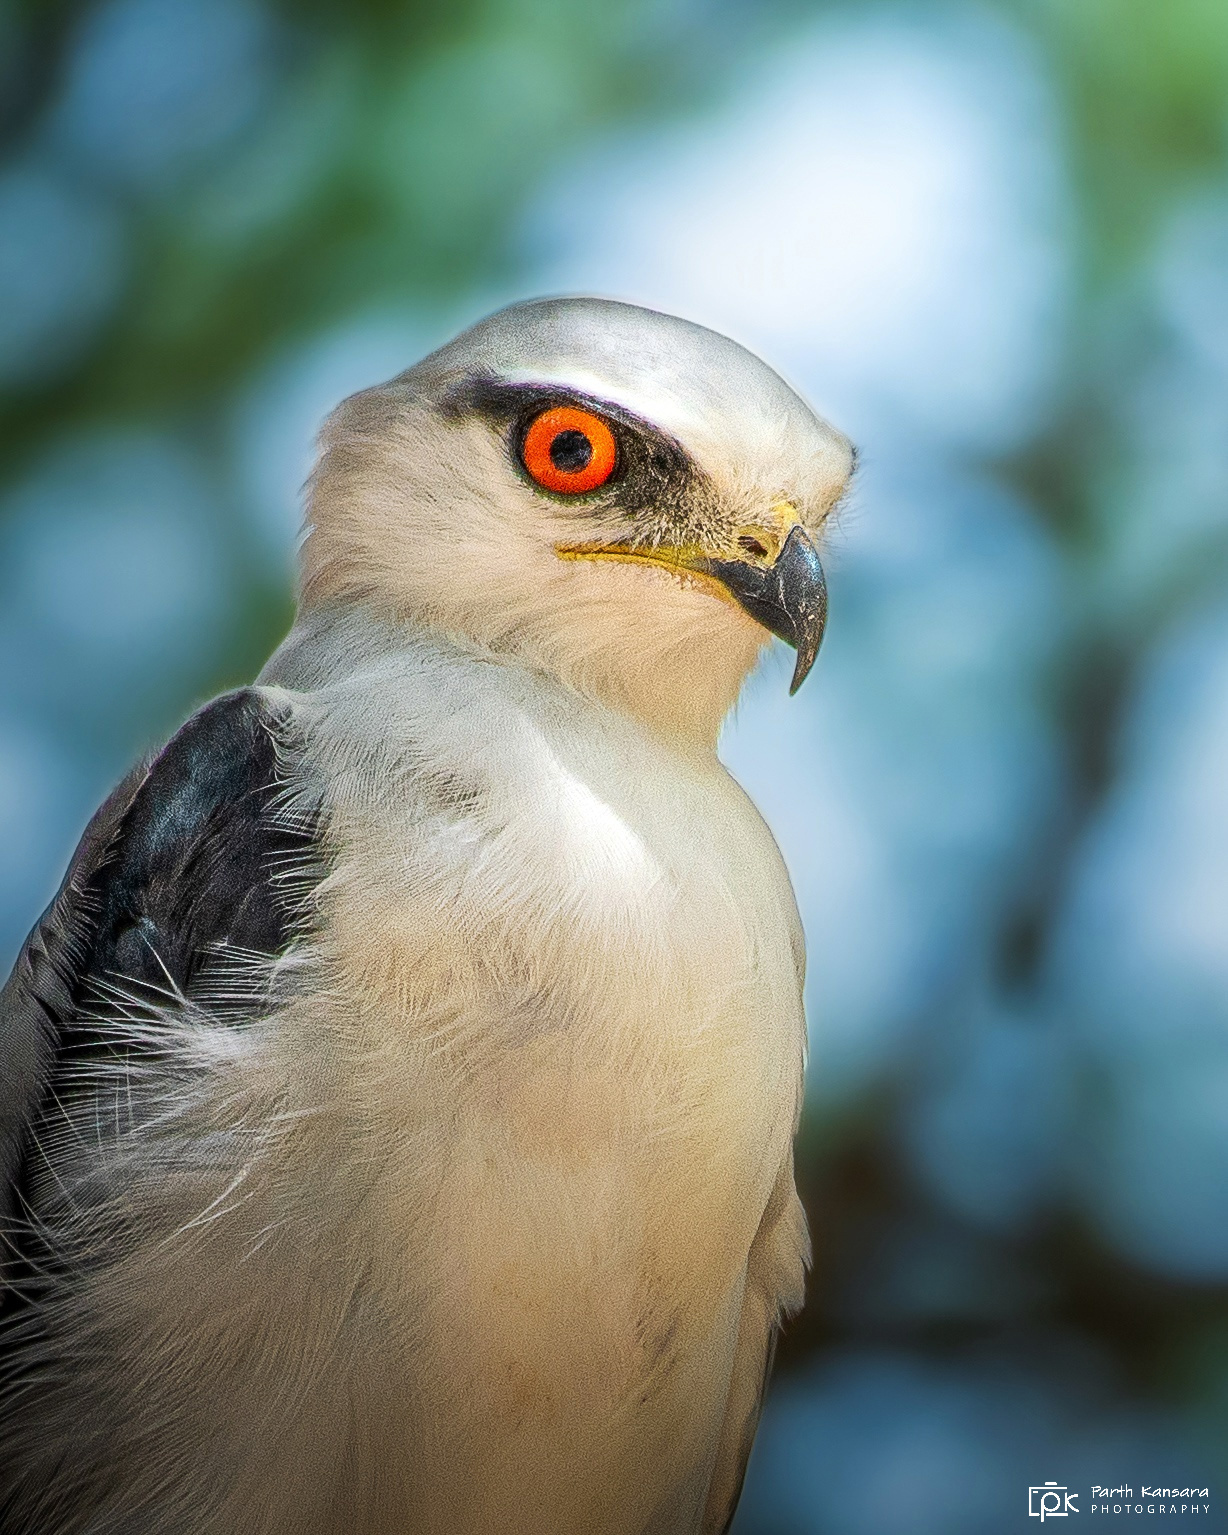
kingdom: Animalia
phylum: Chordata
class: Aves
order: Accipitriformes
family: Accipitridae
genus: Elanus
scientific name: Elanus caeruleus
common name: Black-winged kite
